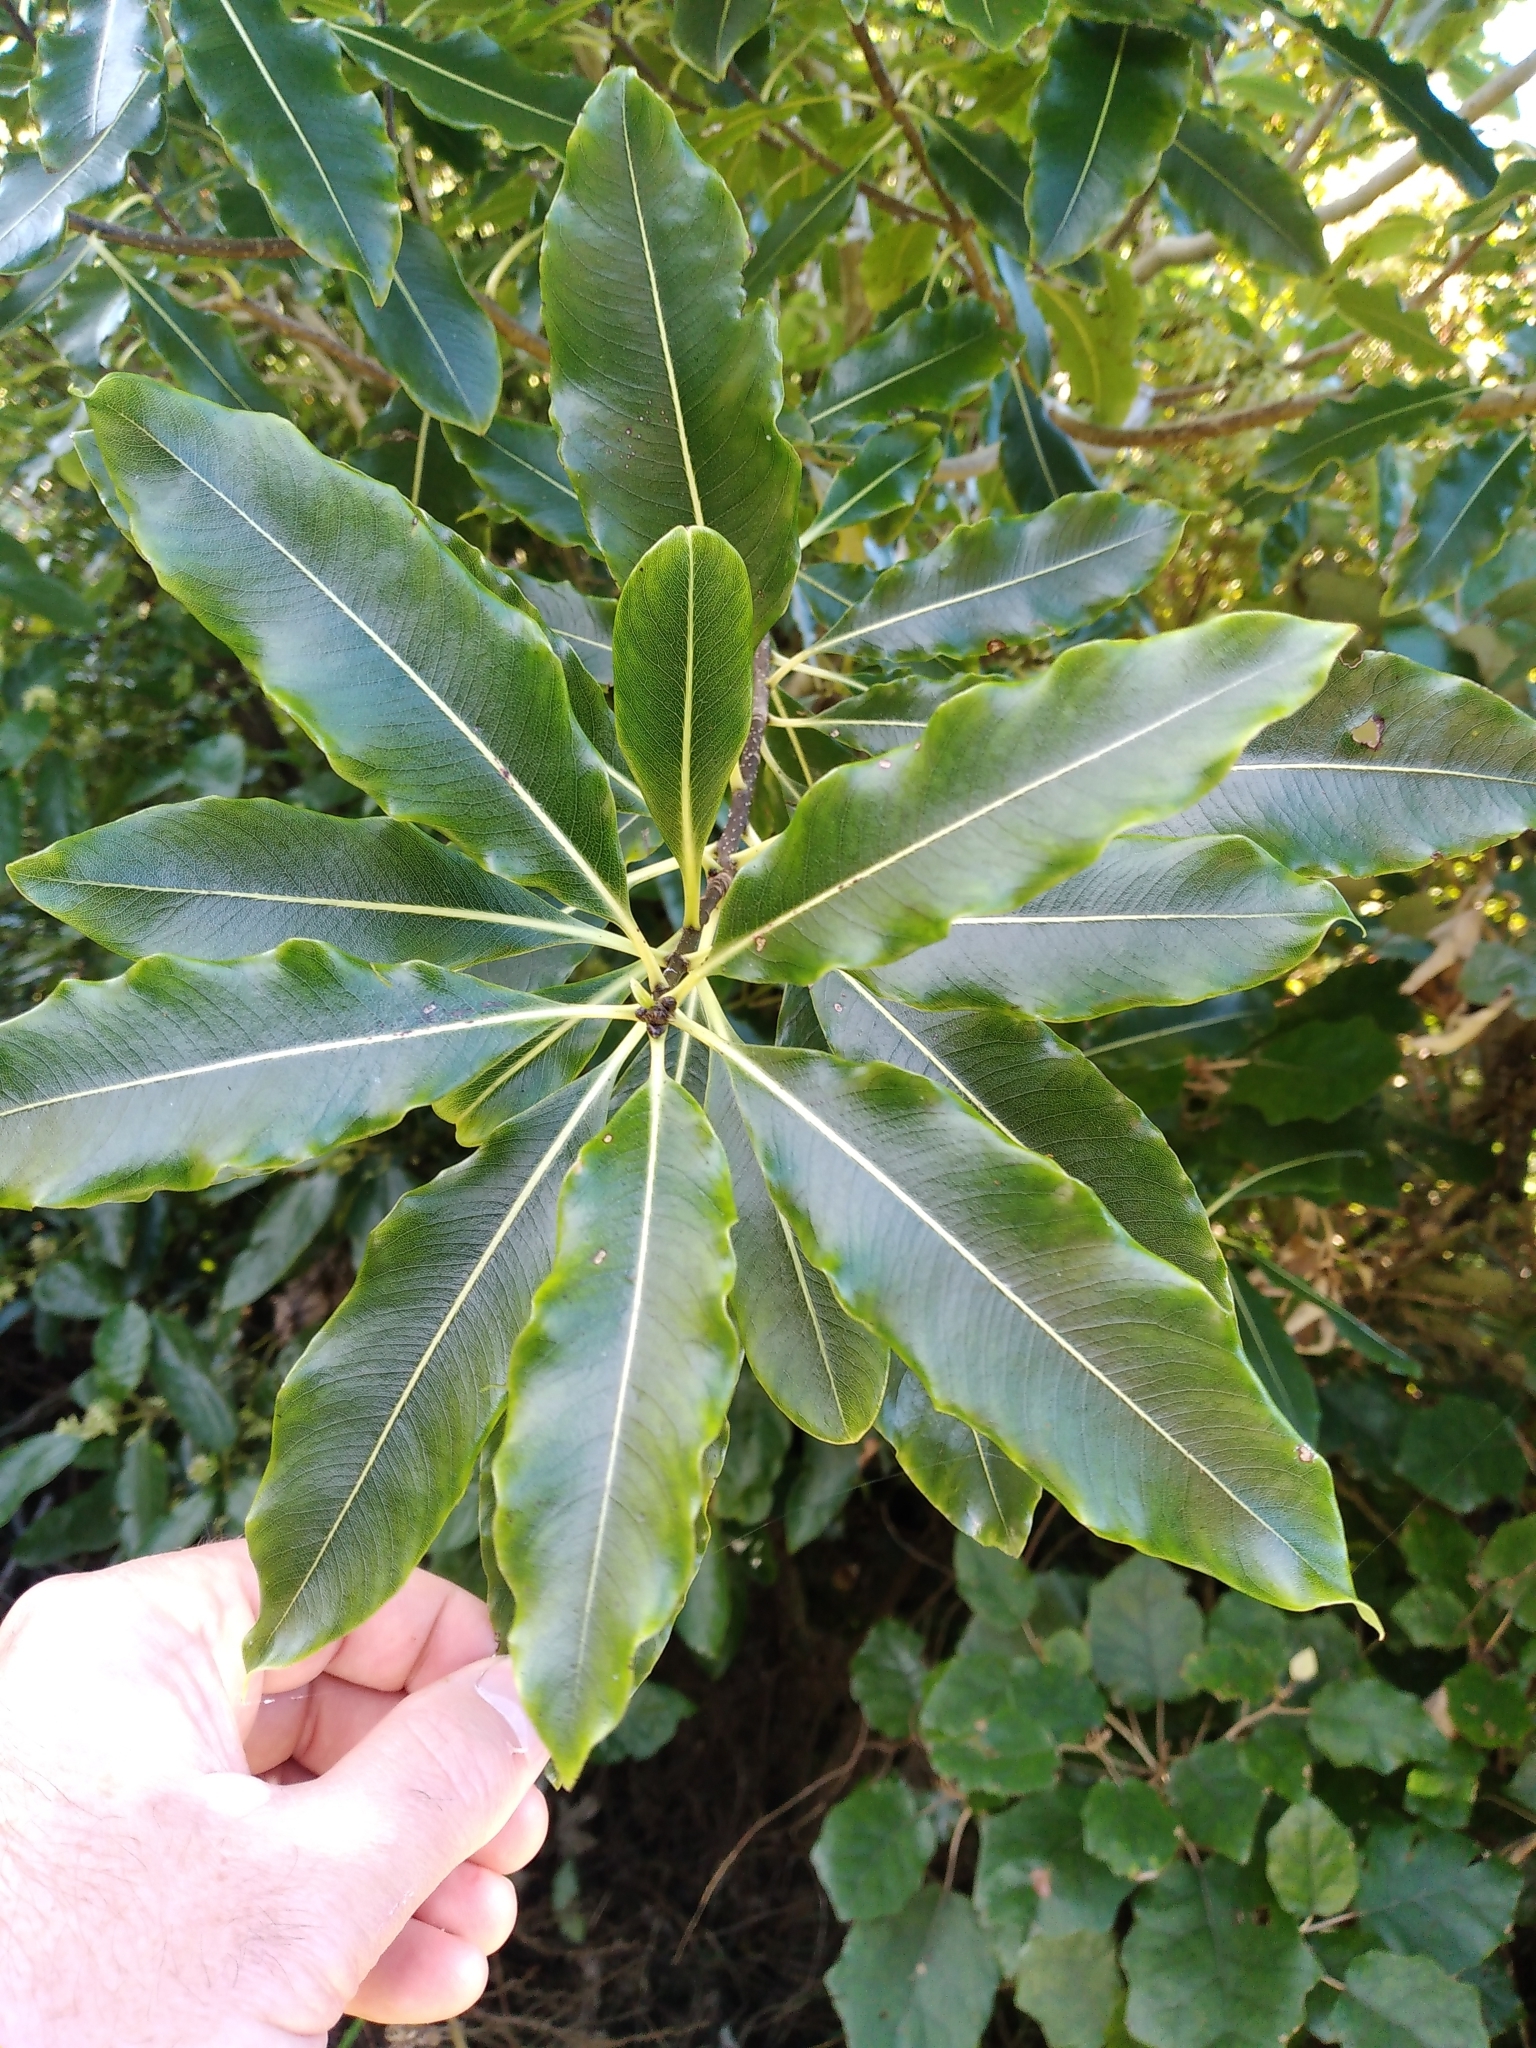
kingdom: Plantae
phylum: Tracheophyta
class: Magnoliopsida
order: Apiales
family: Pittosporaceae
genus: Pittosporum
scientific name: Pittosporum eugenioides
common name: Lemonwood
